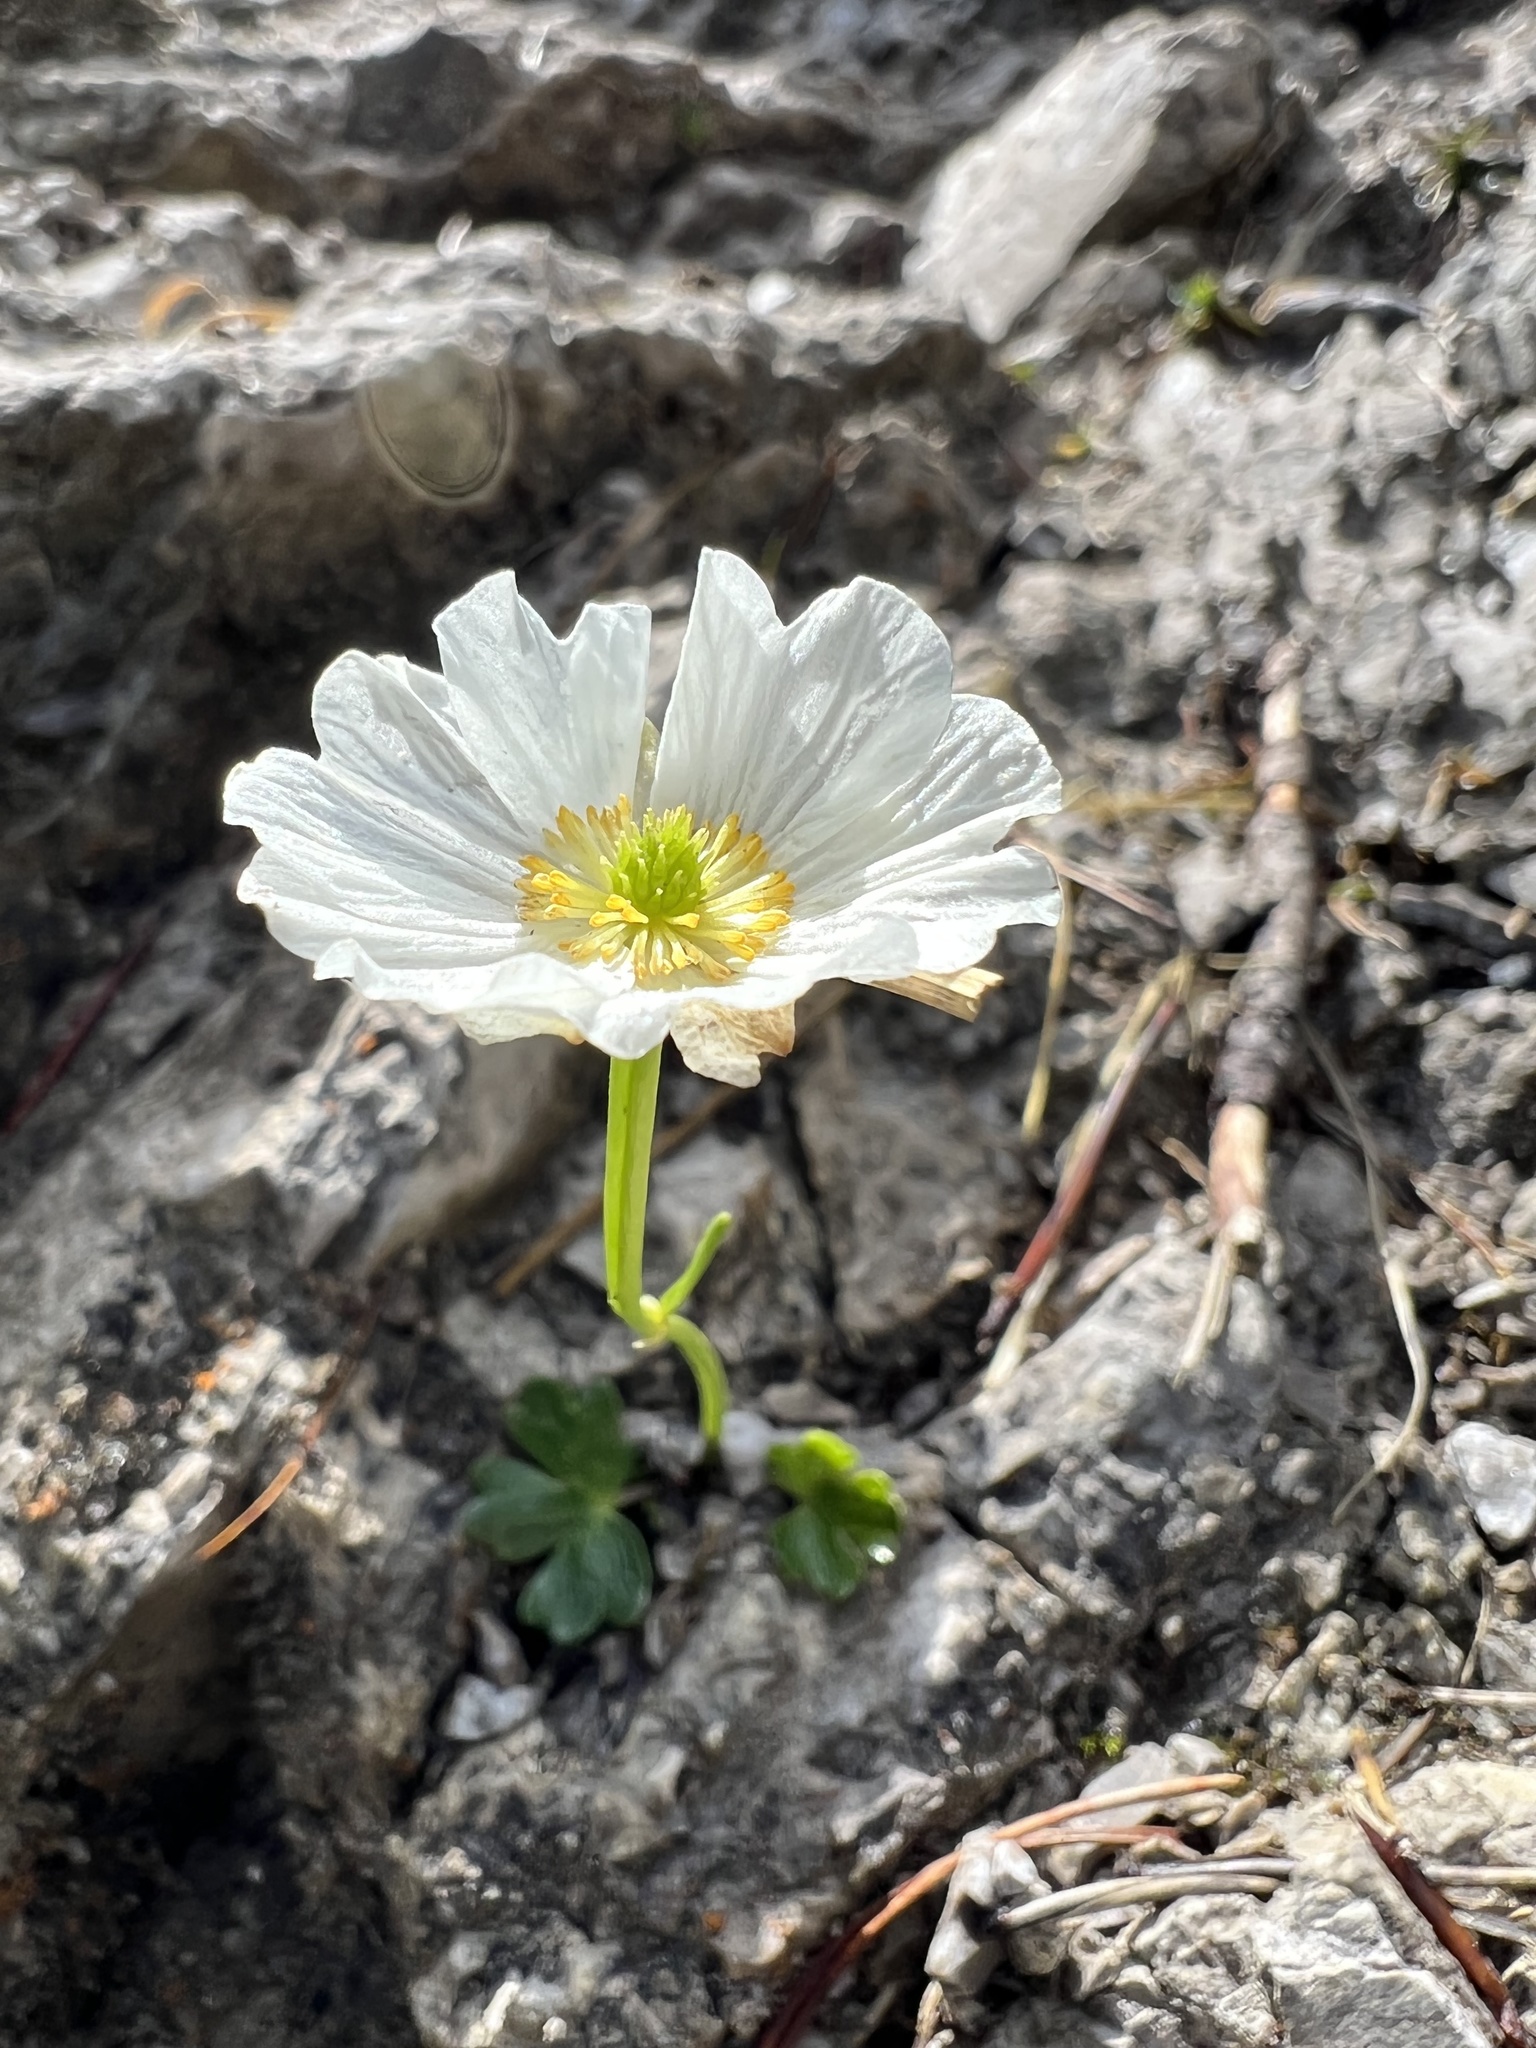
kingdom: Plantae
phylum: Tracheophyta
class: Magnoliopsida
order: Ranunculales
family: Ranunculaceae
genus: Ranunculus
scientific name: Ranunculus alpestris
